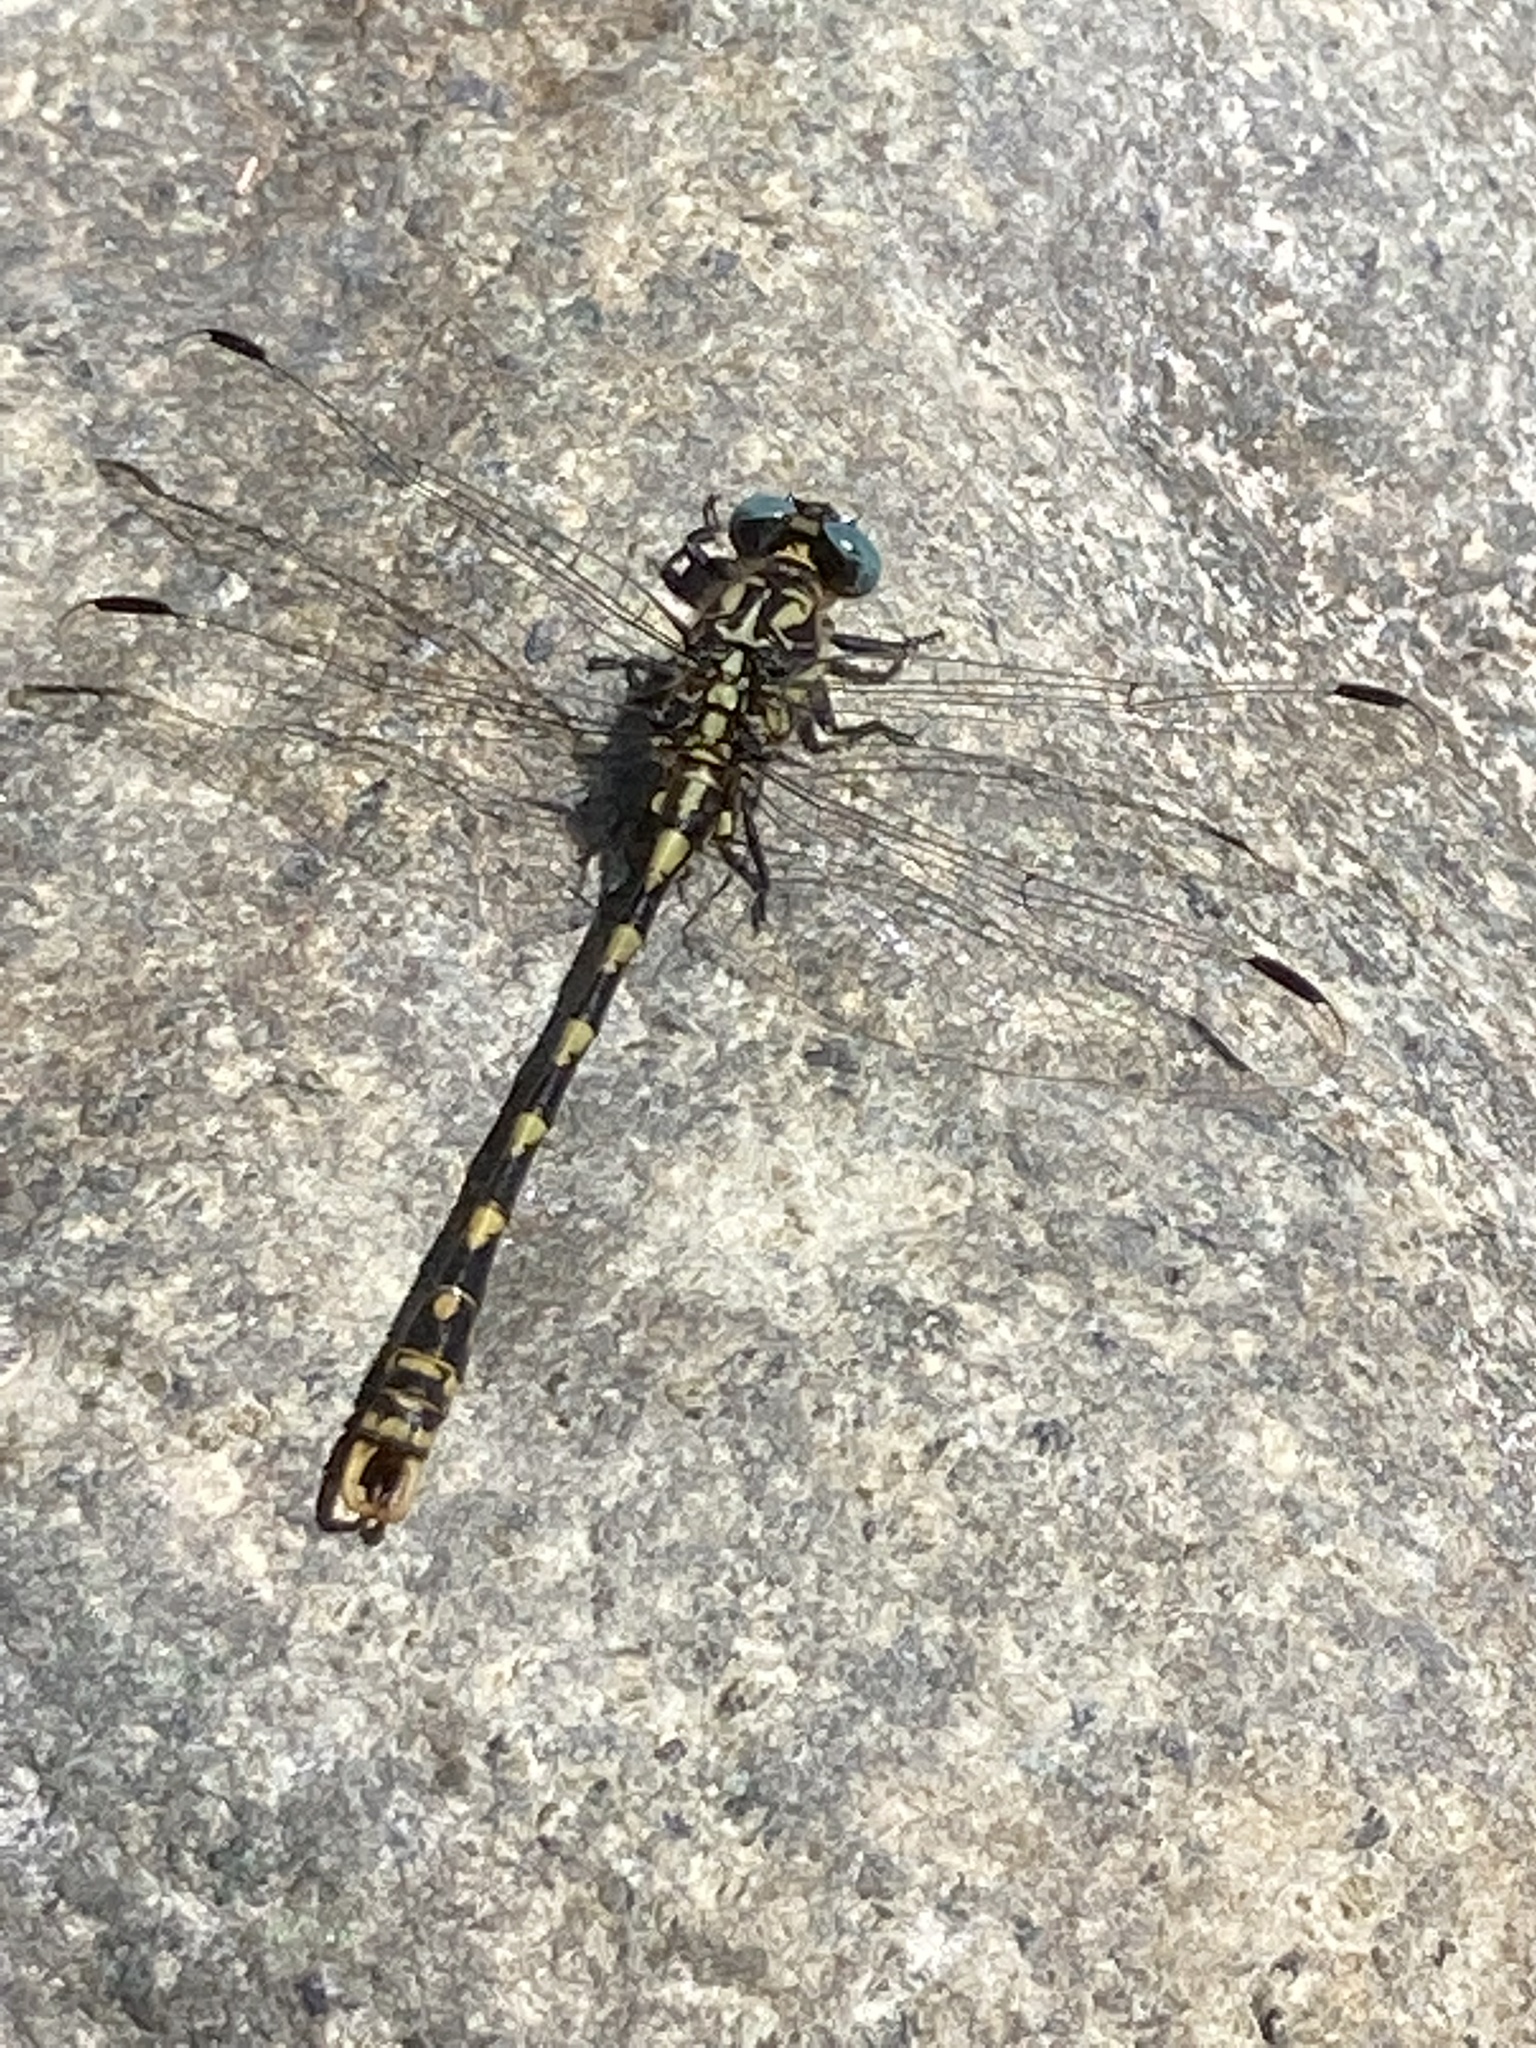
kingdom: Animalia
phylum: Arthropoda
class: Insecta
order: Odonata
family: Gomphidae
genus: Onychogomphus
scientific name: Onychogomphus uncatus
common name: Large pincertail
